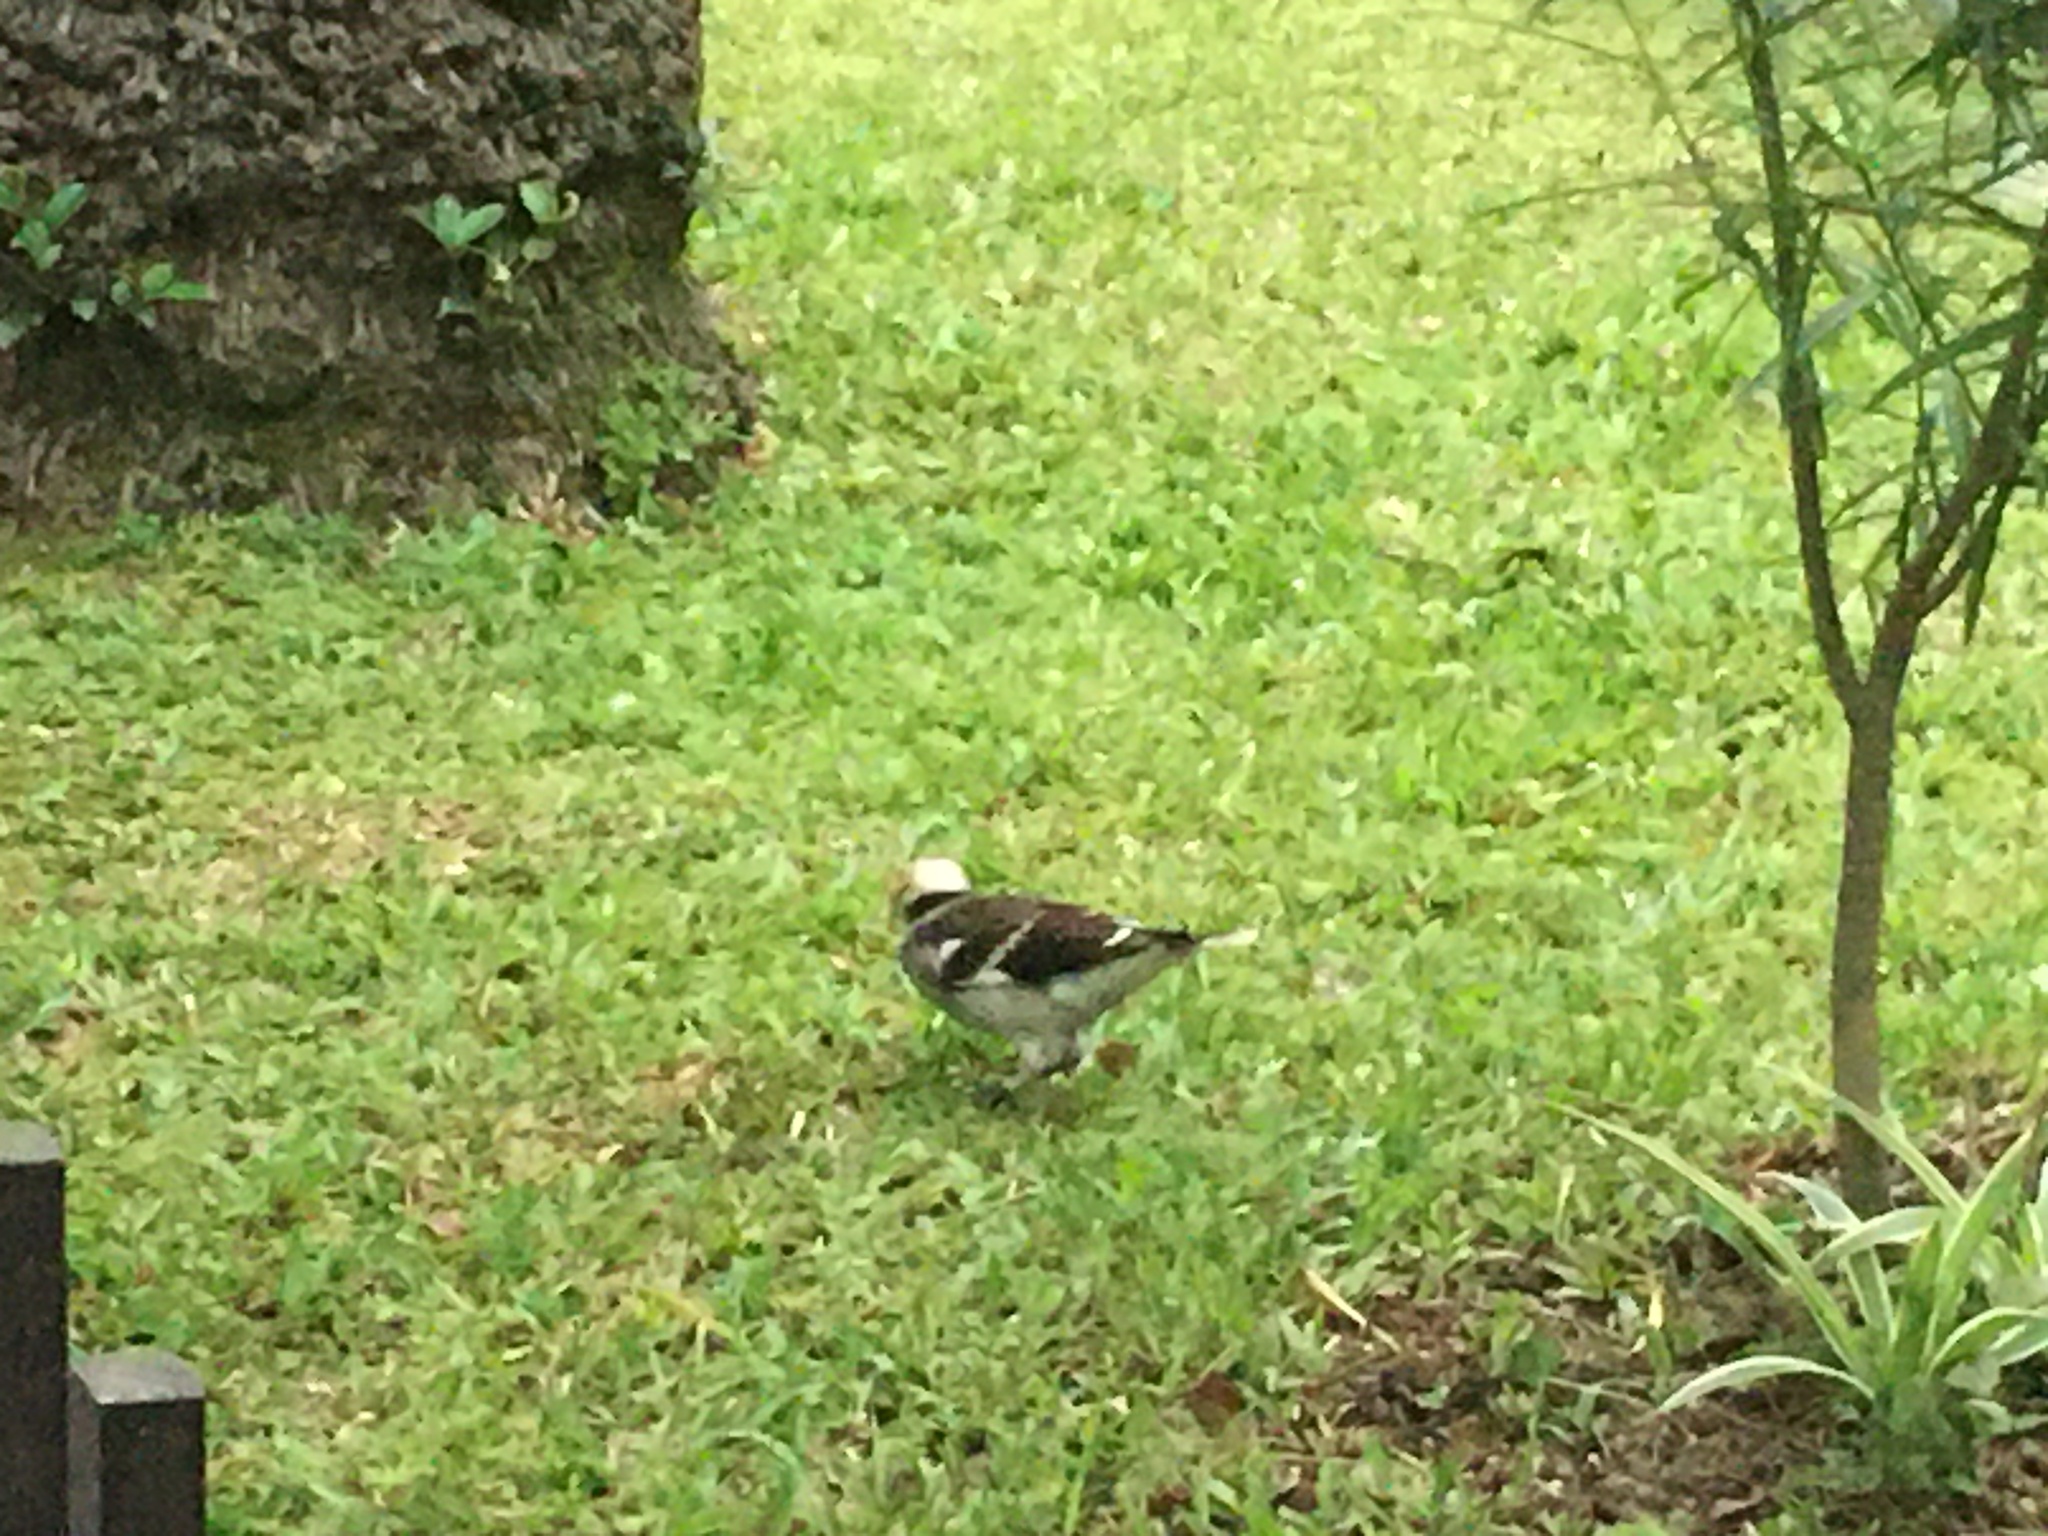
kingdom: Animalia
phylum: Chordata
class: Aves
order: Passeriformes
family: Sturnidae
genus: Gracupica
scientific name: Gracupica nigricollis
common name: Black-collared starling
